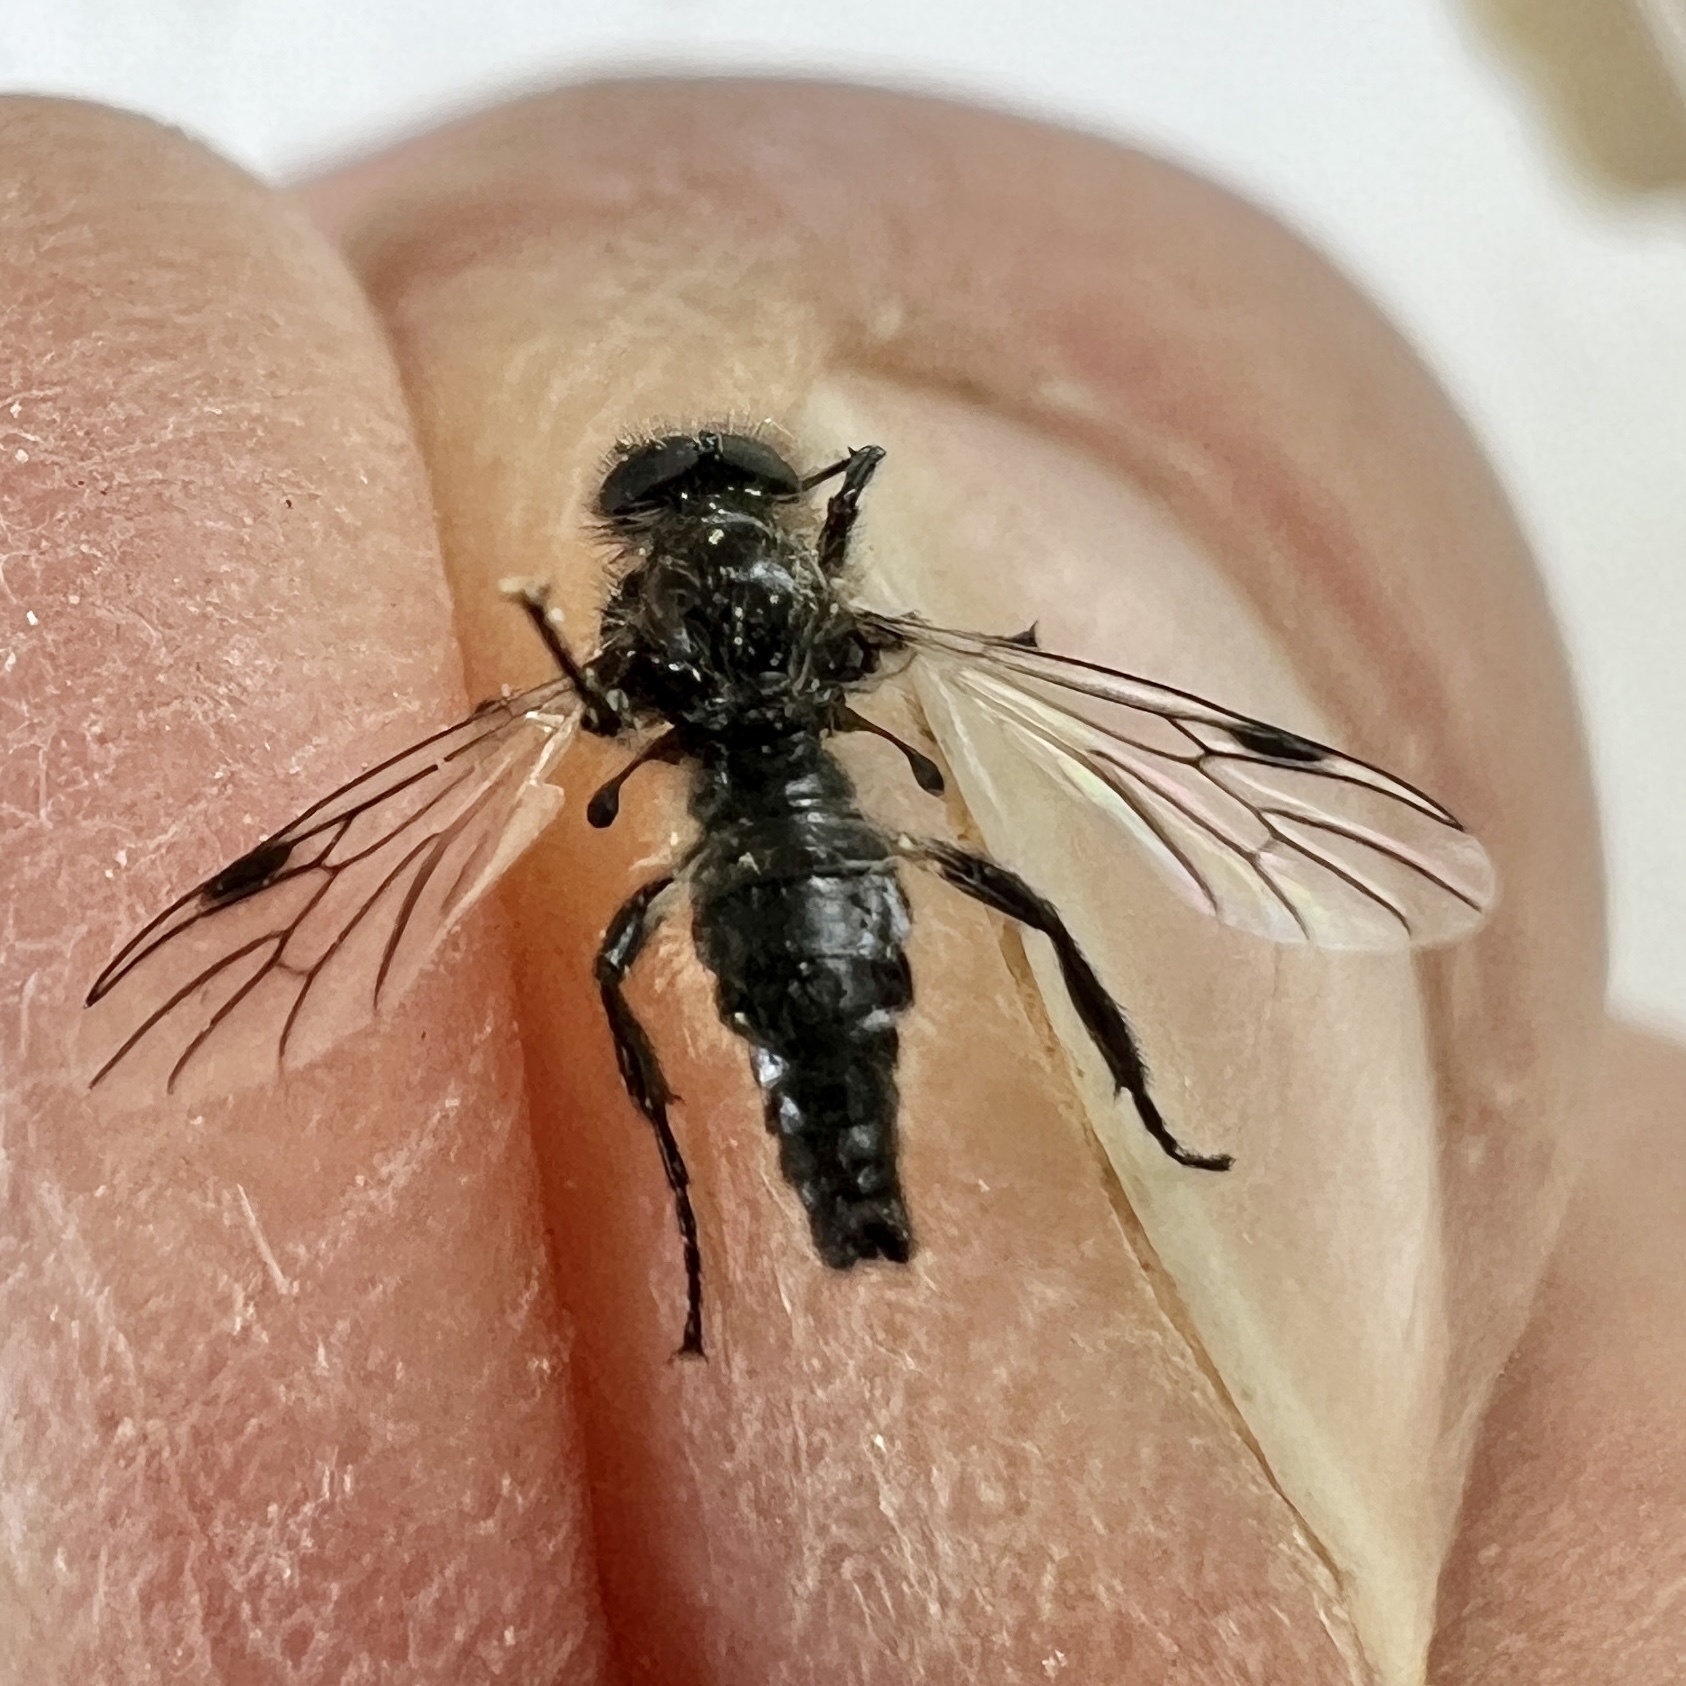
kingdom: Animalia
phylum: Arthropoda
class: Insecta
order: Diptera
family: Bibionidae
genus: Bibio
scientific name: Bibio albipennis
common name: White-winged march fly
